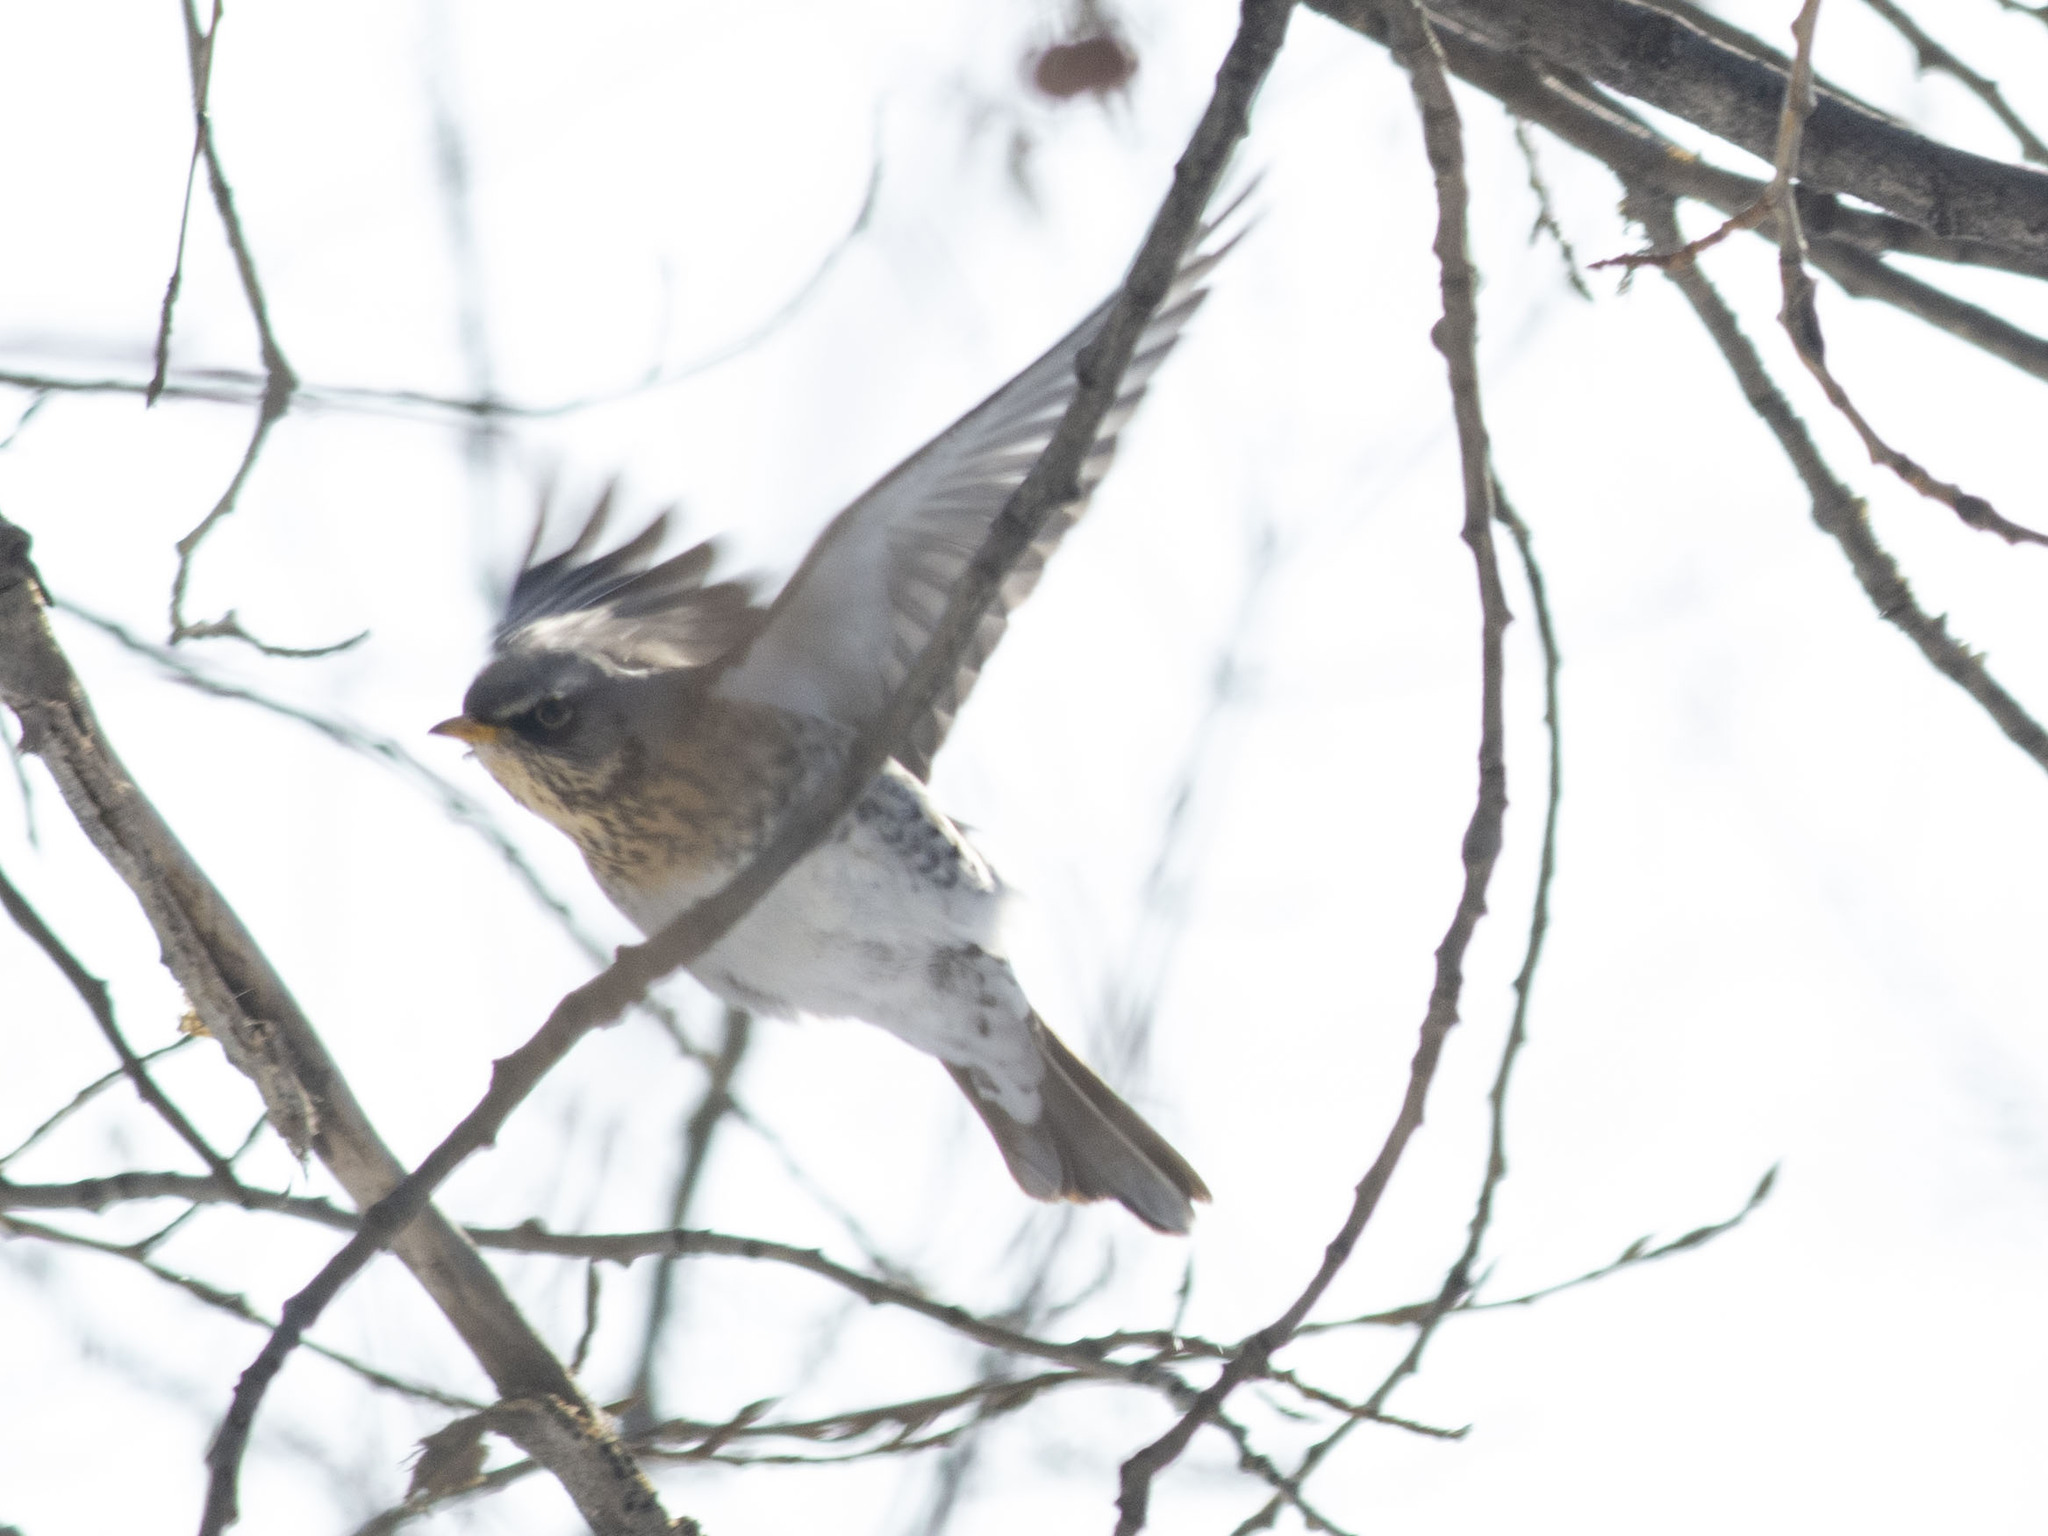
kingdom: Animalia
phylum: Chordata
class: Aves
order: Passeriformes
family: Turdidae
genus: Turdus
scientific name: Turdus pilaris
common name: Fieldfare
